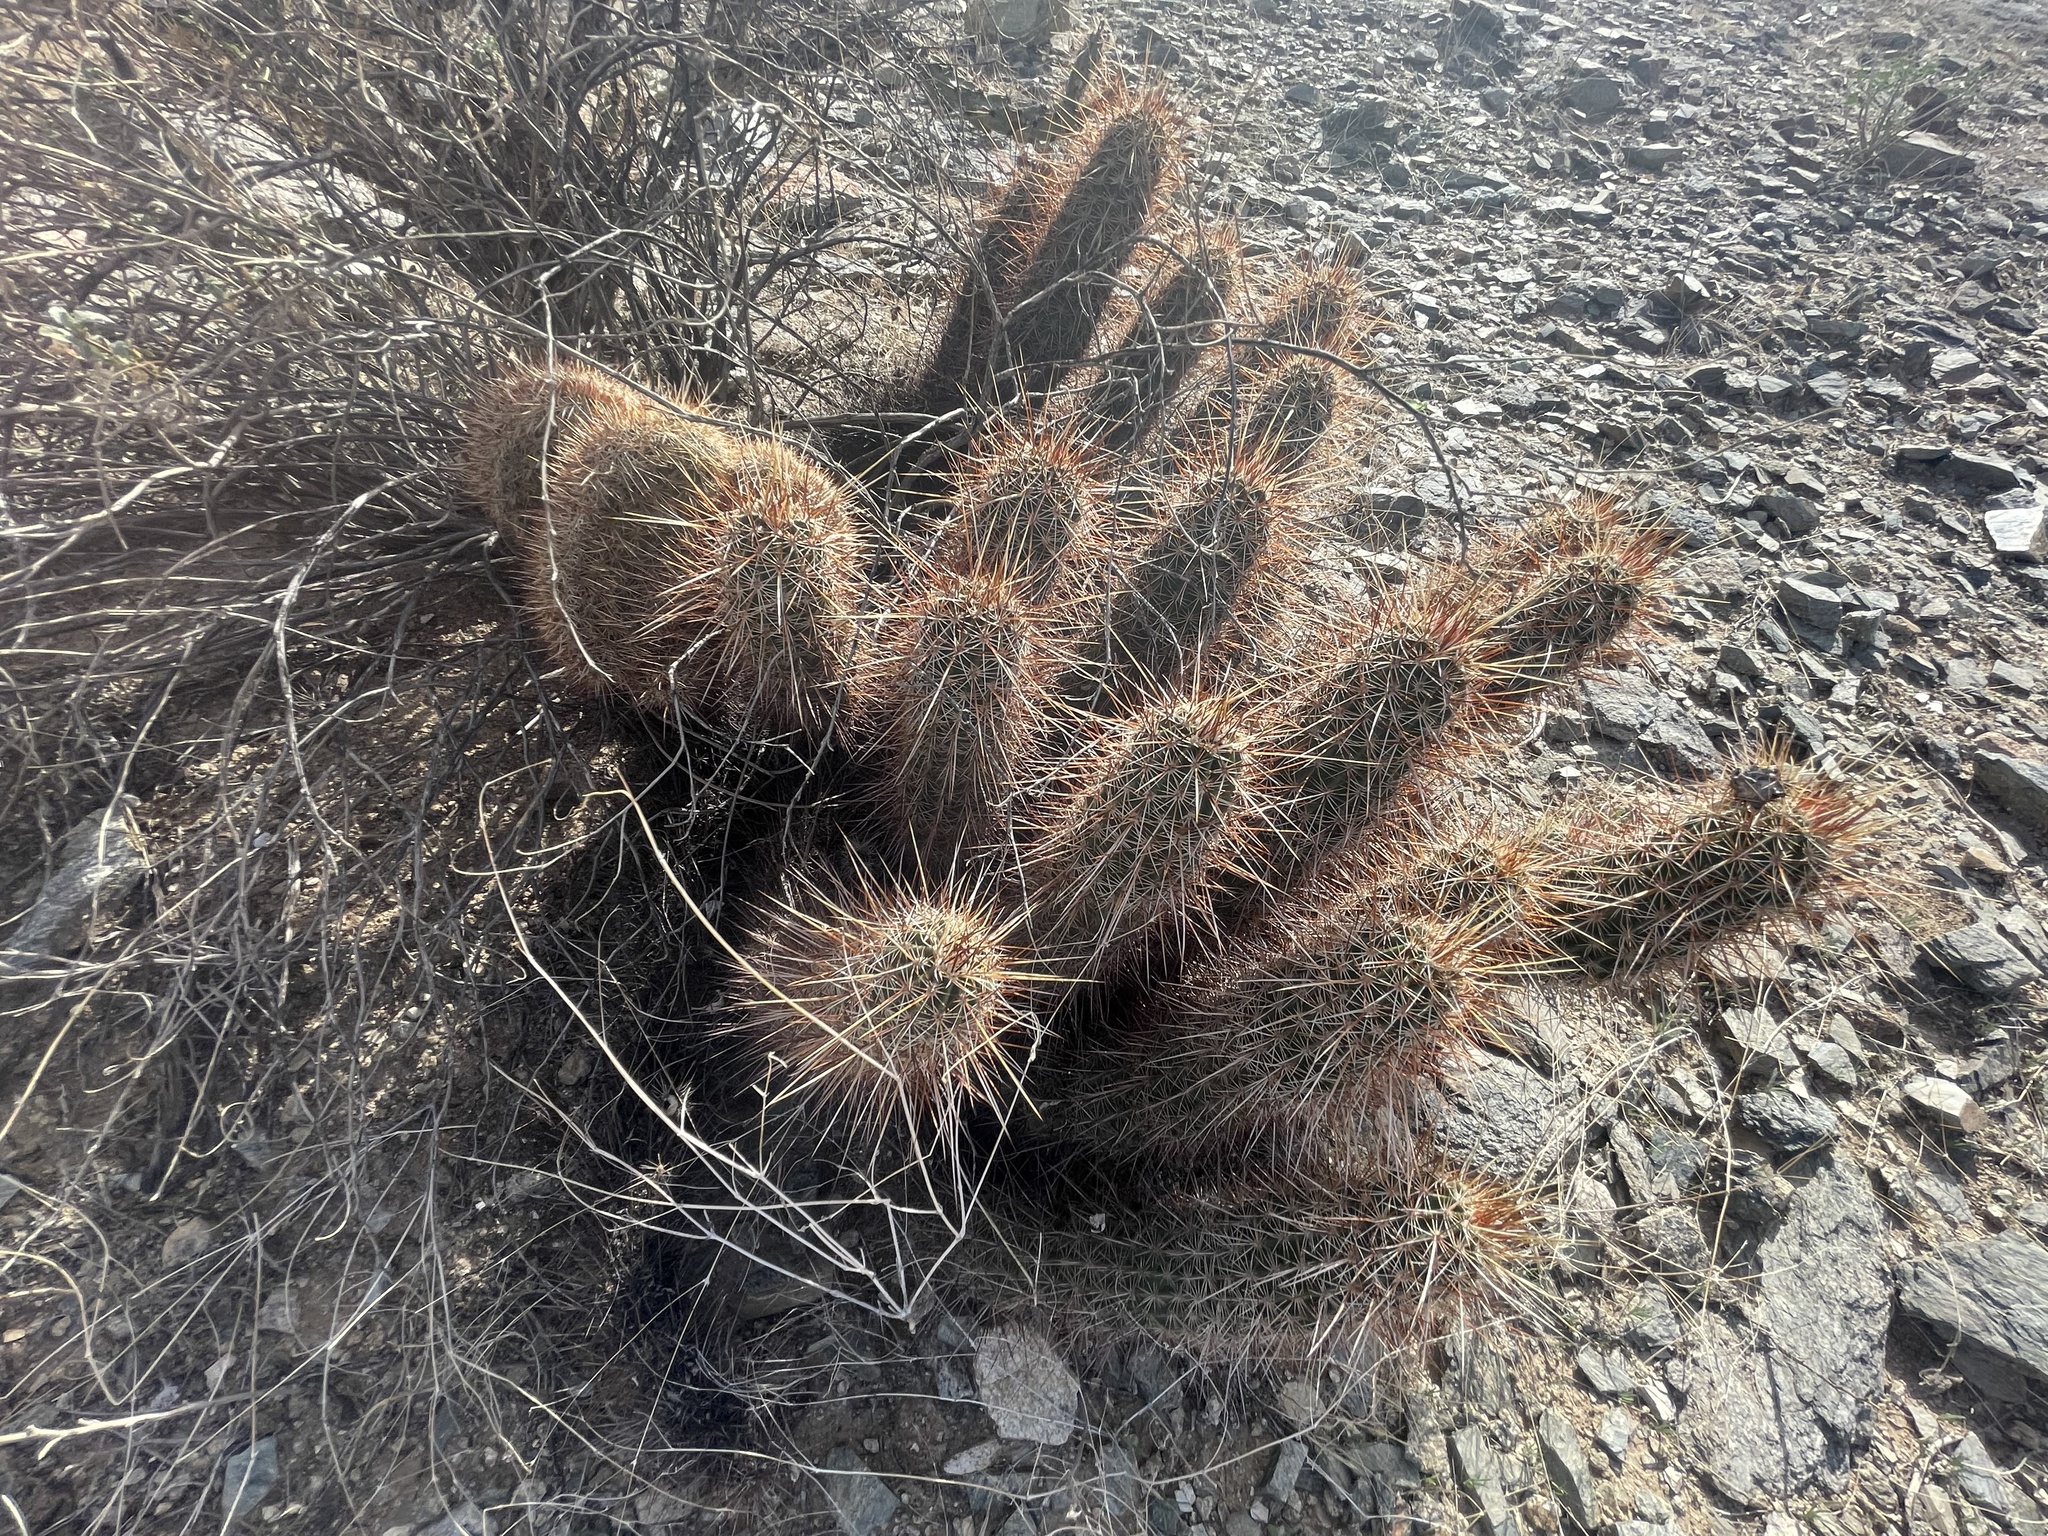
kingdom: Plantae
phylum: Tracheophyta
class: Magnoliopsida
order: Caryophyllales
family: Cactaceae
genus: Echinocereus
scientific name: Echinocereus engelmannii
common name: Engelmann's hedgehog cactus
